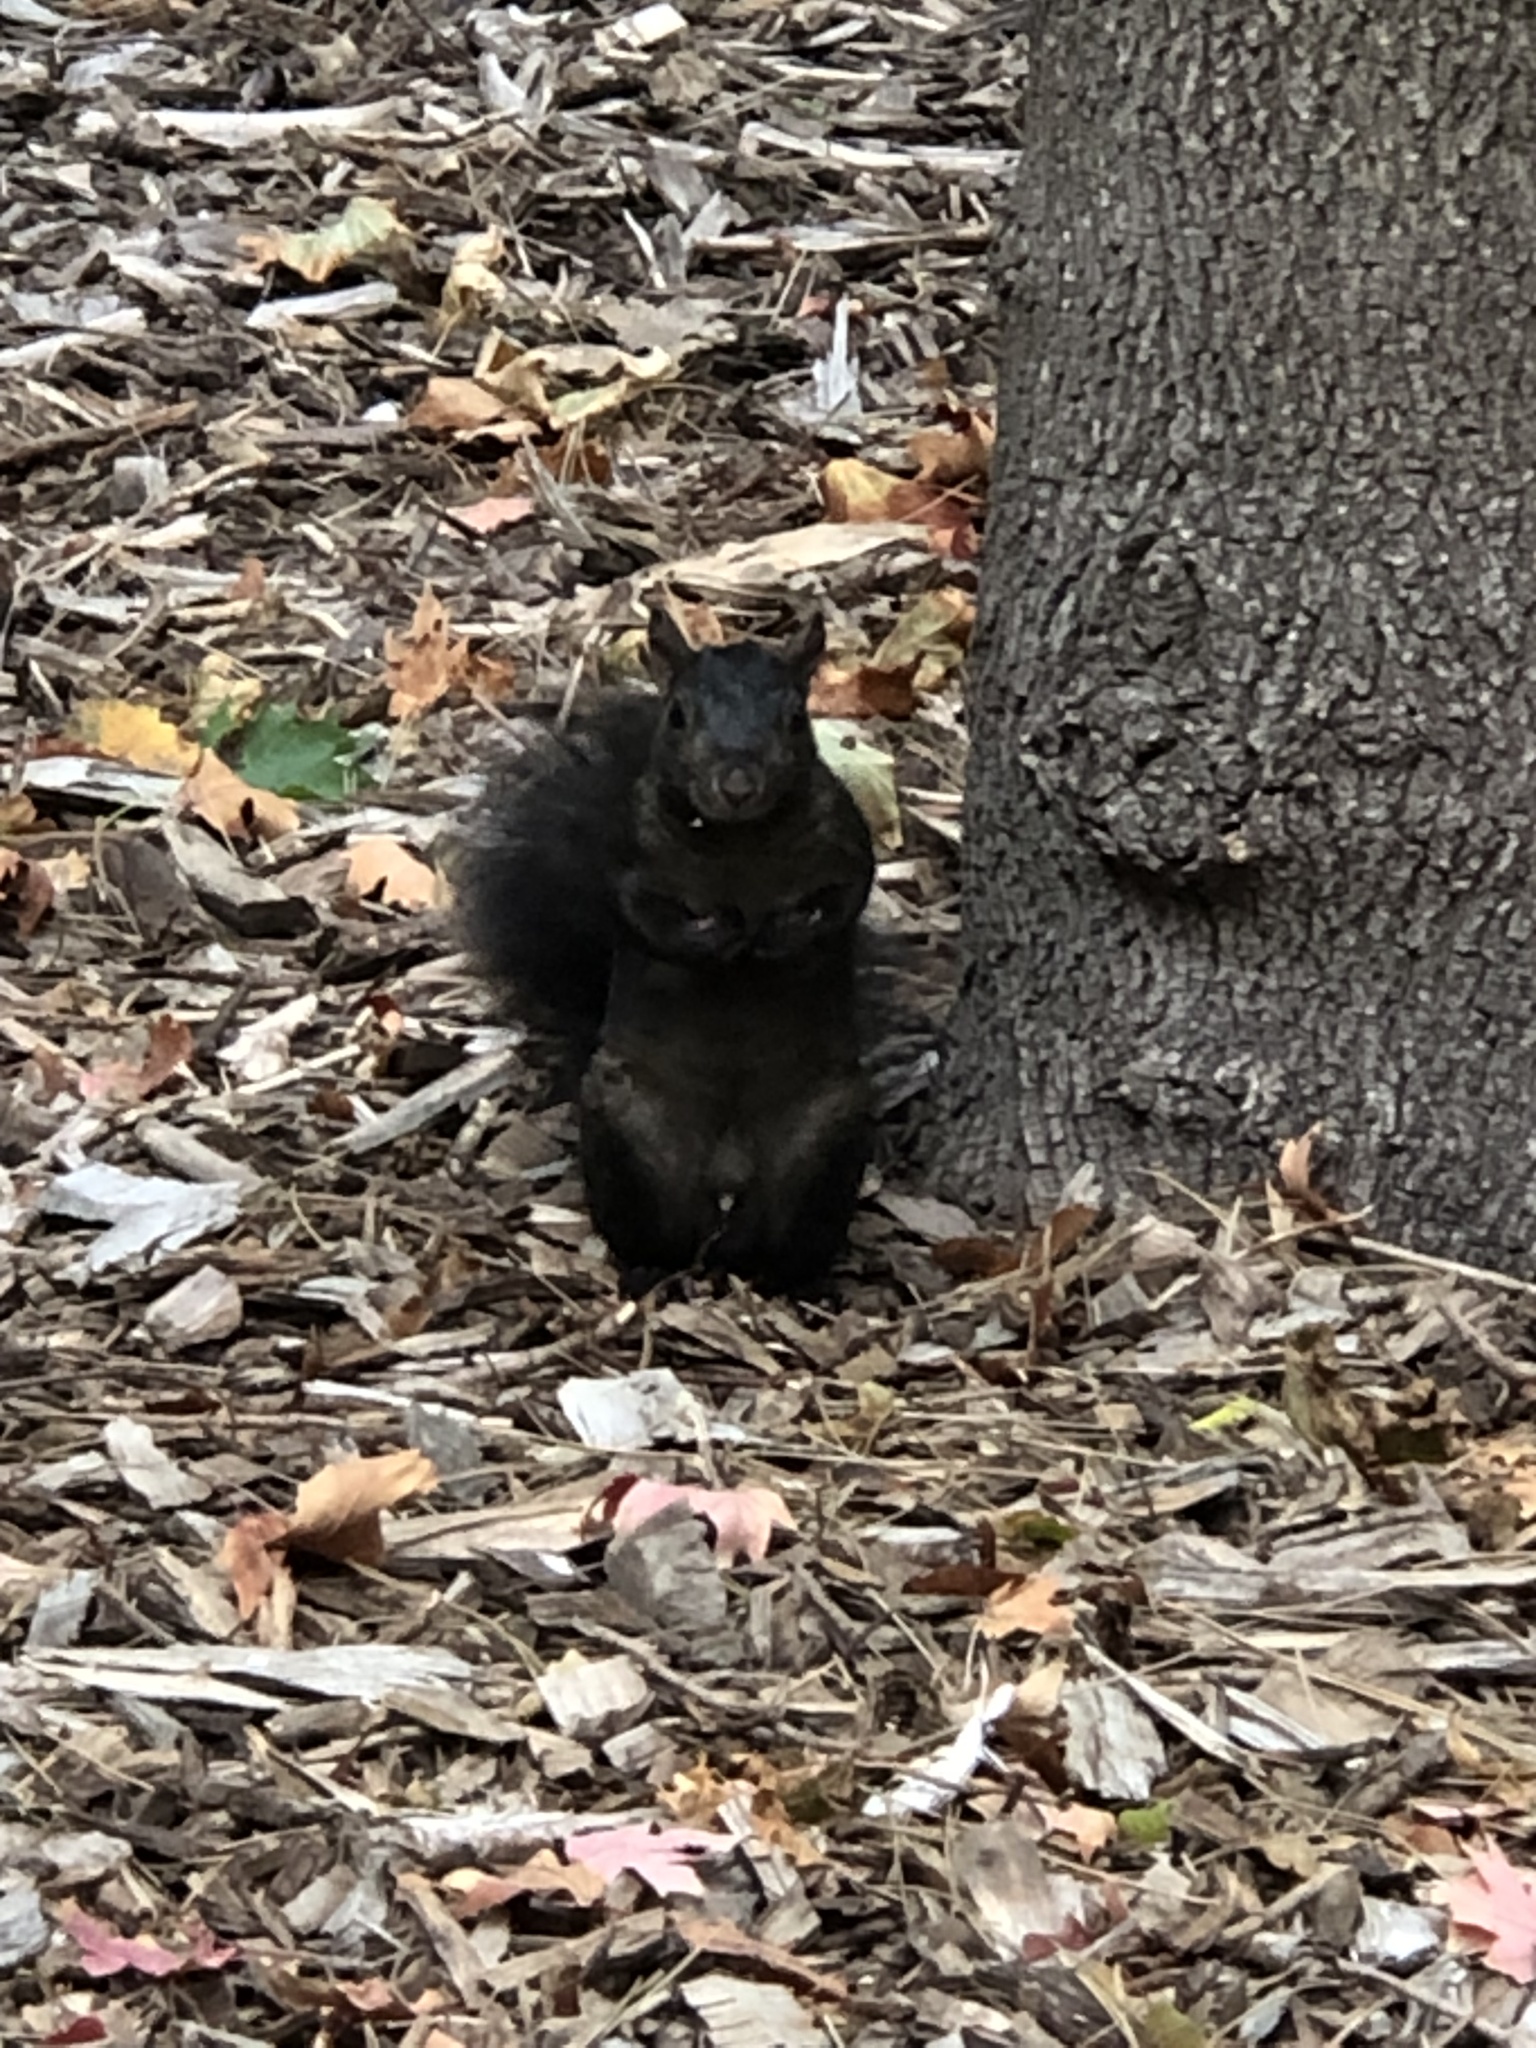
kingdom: Animalia
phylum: Chordata
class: Mammalia
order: Rodentia
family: Sciuridae
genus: Sciurus
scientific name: Sciurus carolinensis
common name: Eastern gray squirrel
